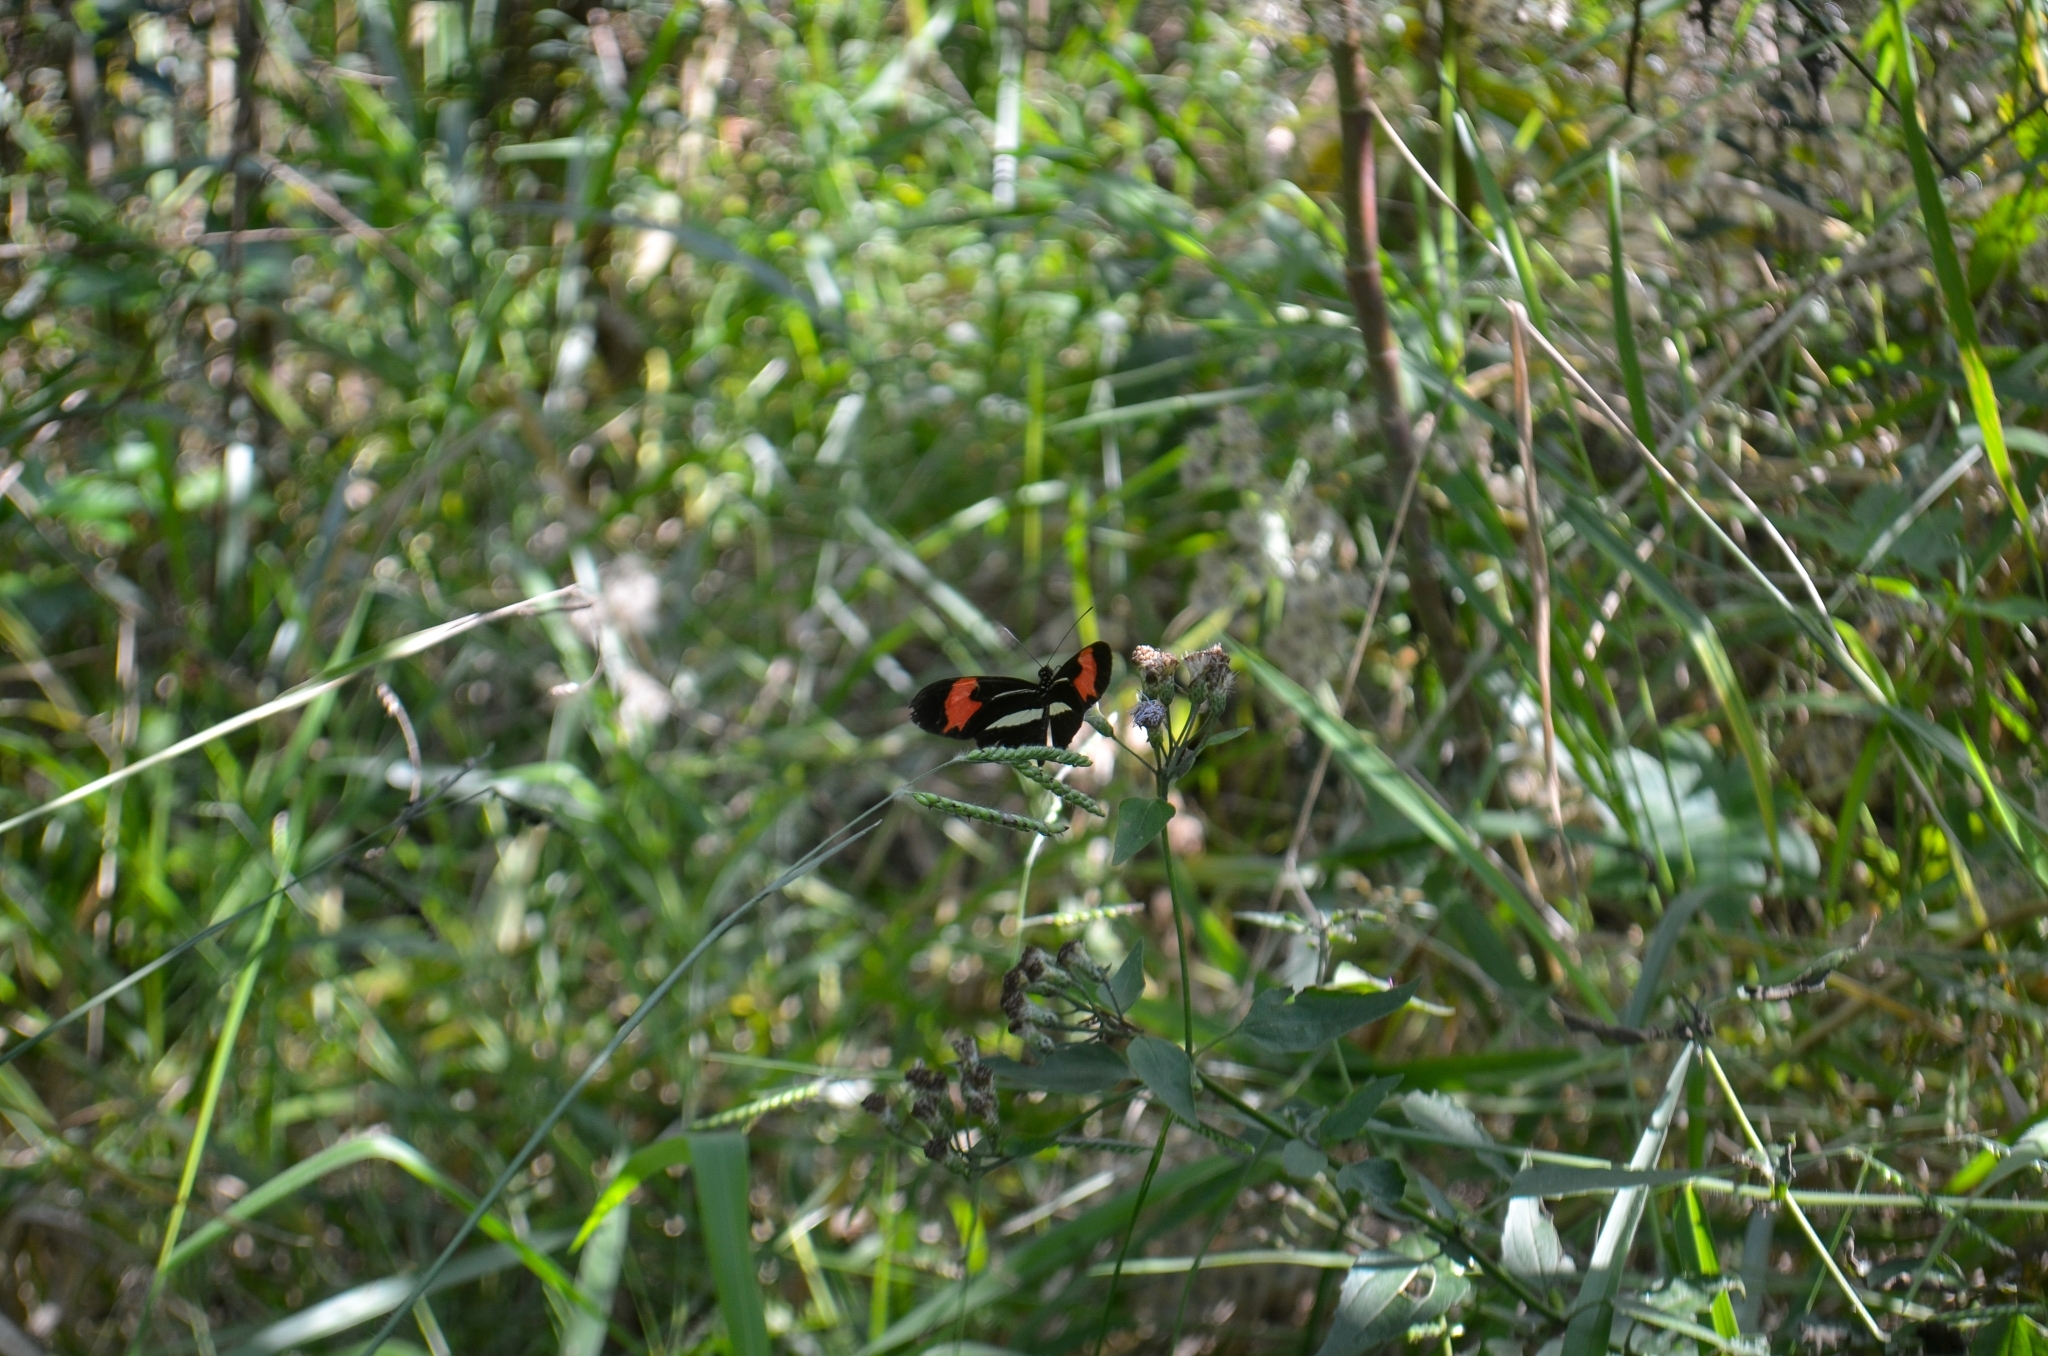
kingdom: Animalia
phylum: Arthropoda
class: Insecta
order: Lepidoptera
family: Nymphalidae
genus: Heliconius
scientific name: Heliconius erato
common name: Common patch longwing
